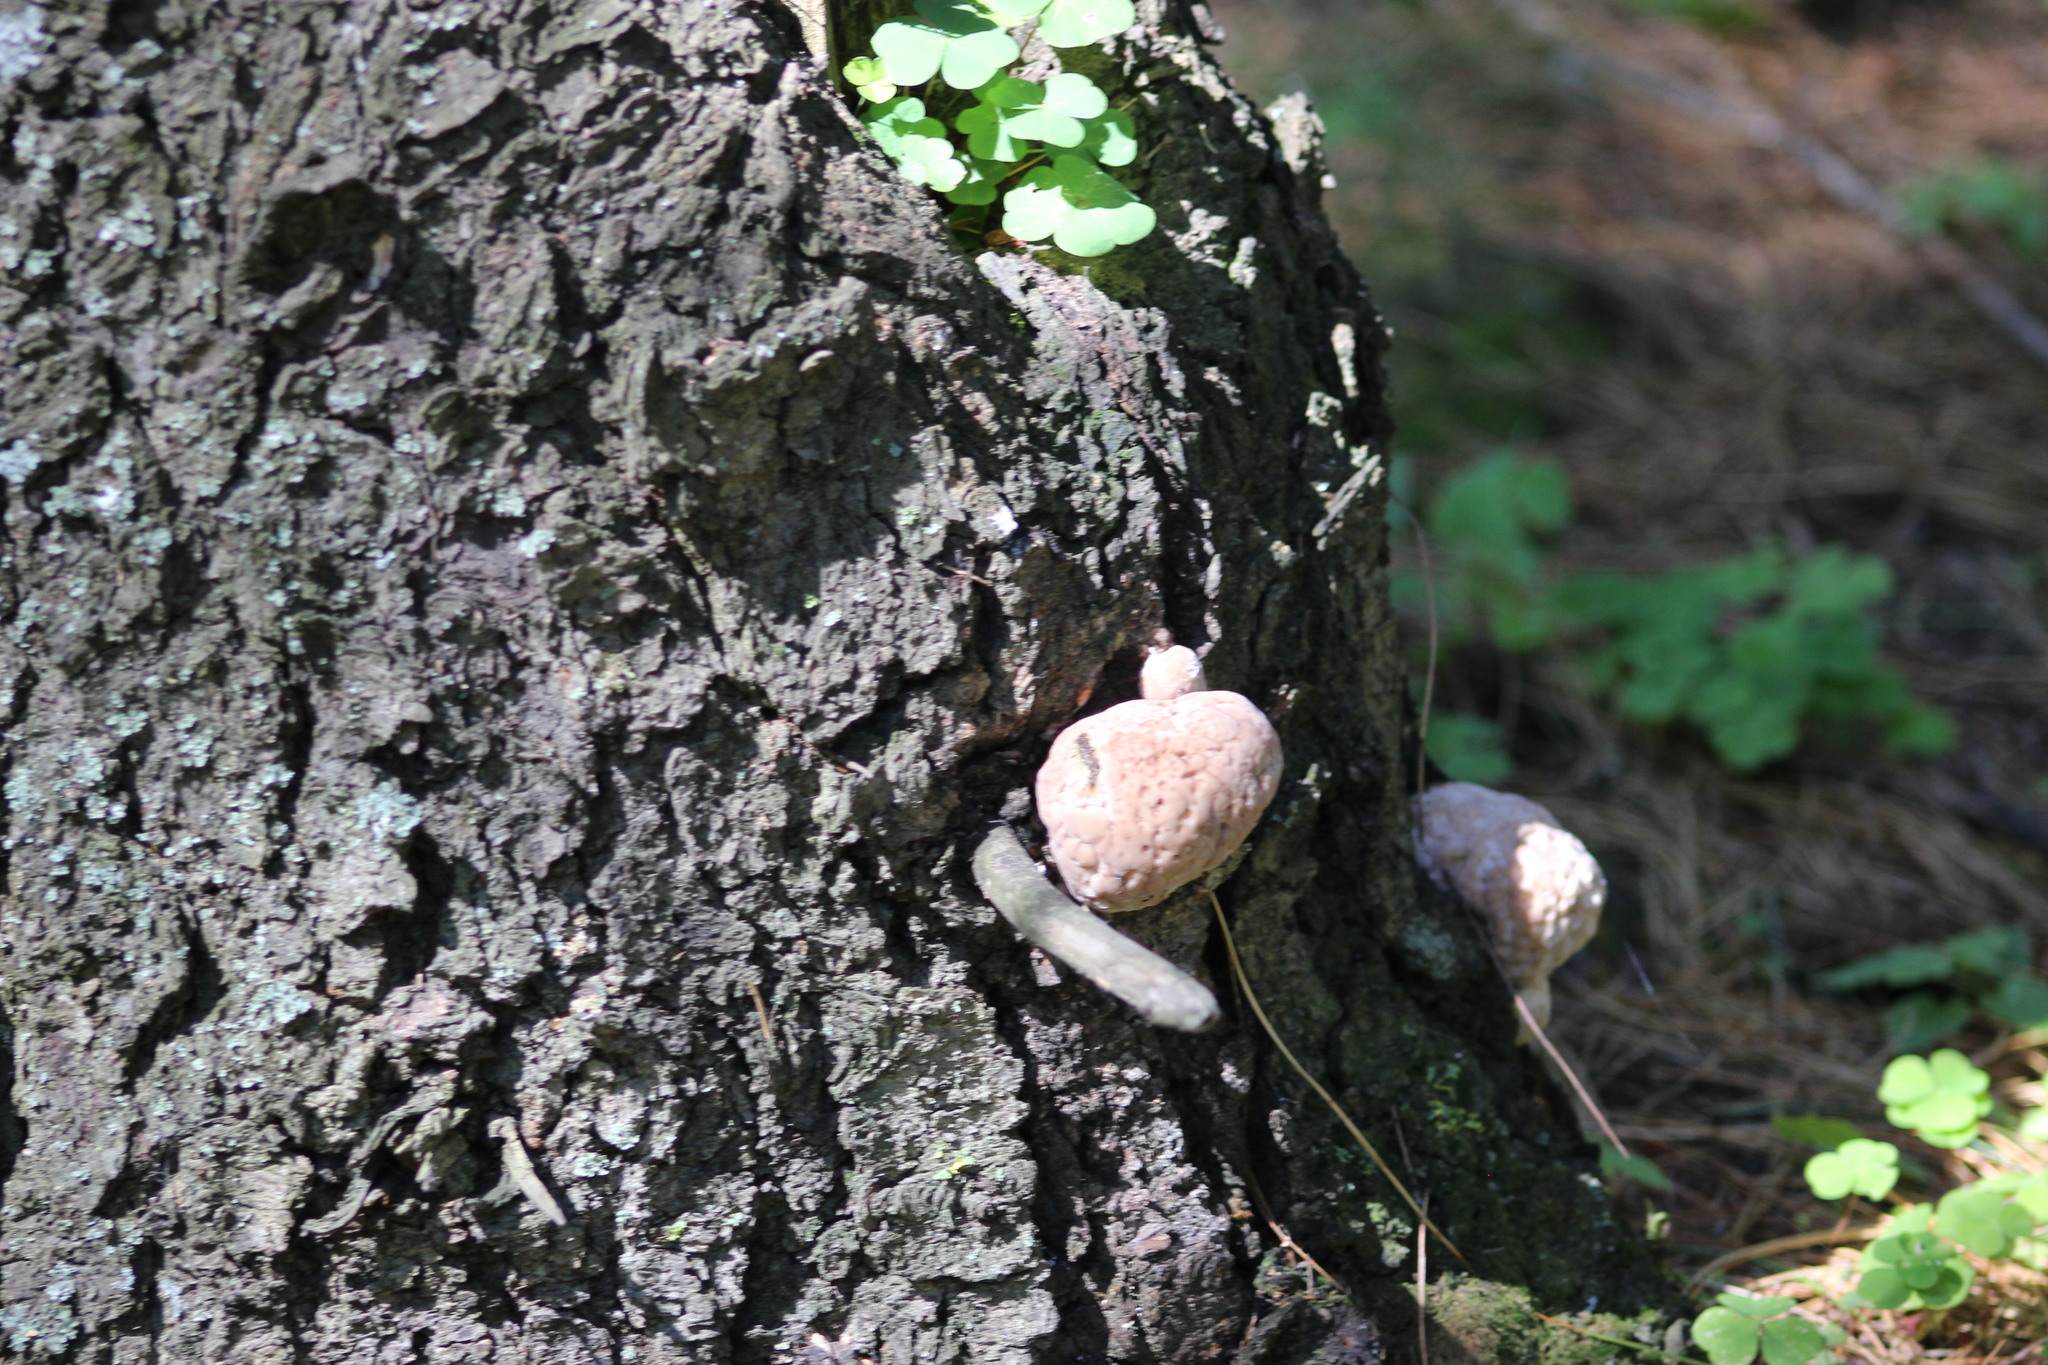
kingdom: Fungi
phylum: Basidiomycota
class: Agaricomycetes
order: Polyporales
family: Fomitopsidaceae
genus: Fomitopsis
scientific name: Fomitopsis pinicola
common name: Red-belted bracket
